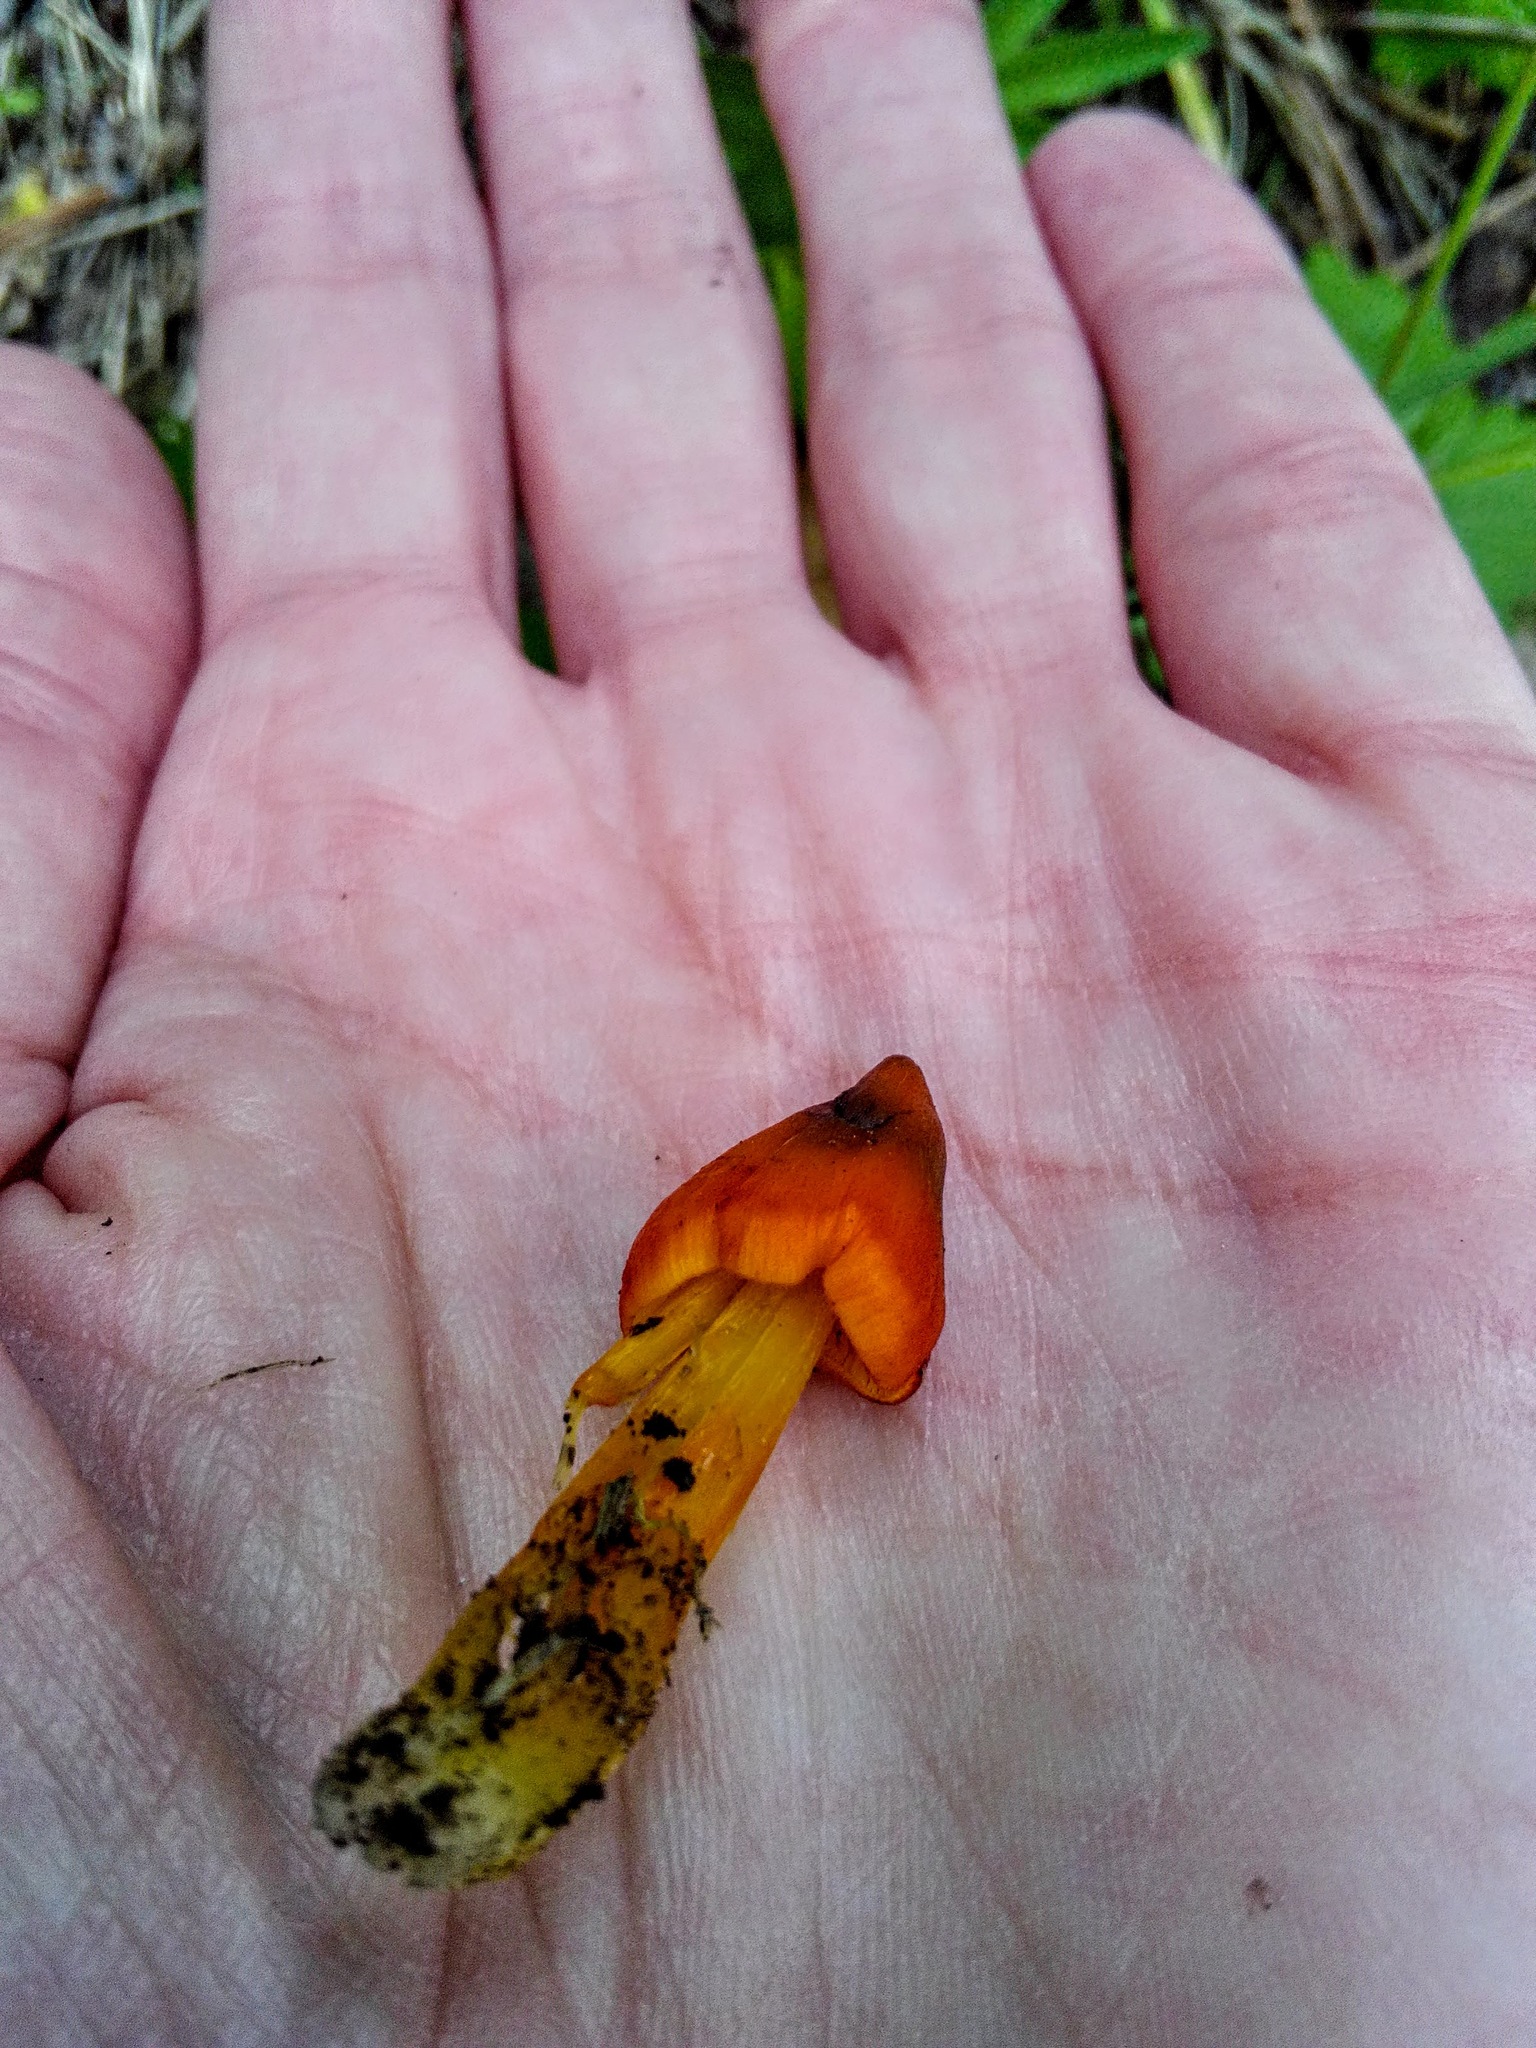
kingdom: Fungi
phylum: Basidiomycota
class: Agaricomycetes
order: Agaricales
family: Hygrophoraceae
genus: Hygrocybe
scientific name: Hygrocybe conica
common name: Blackening wax-cap
